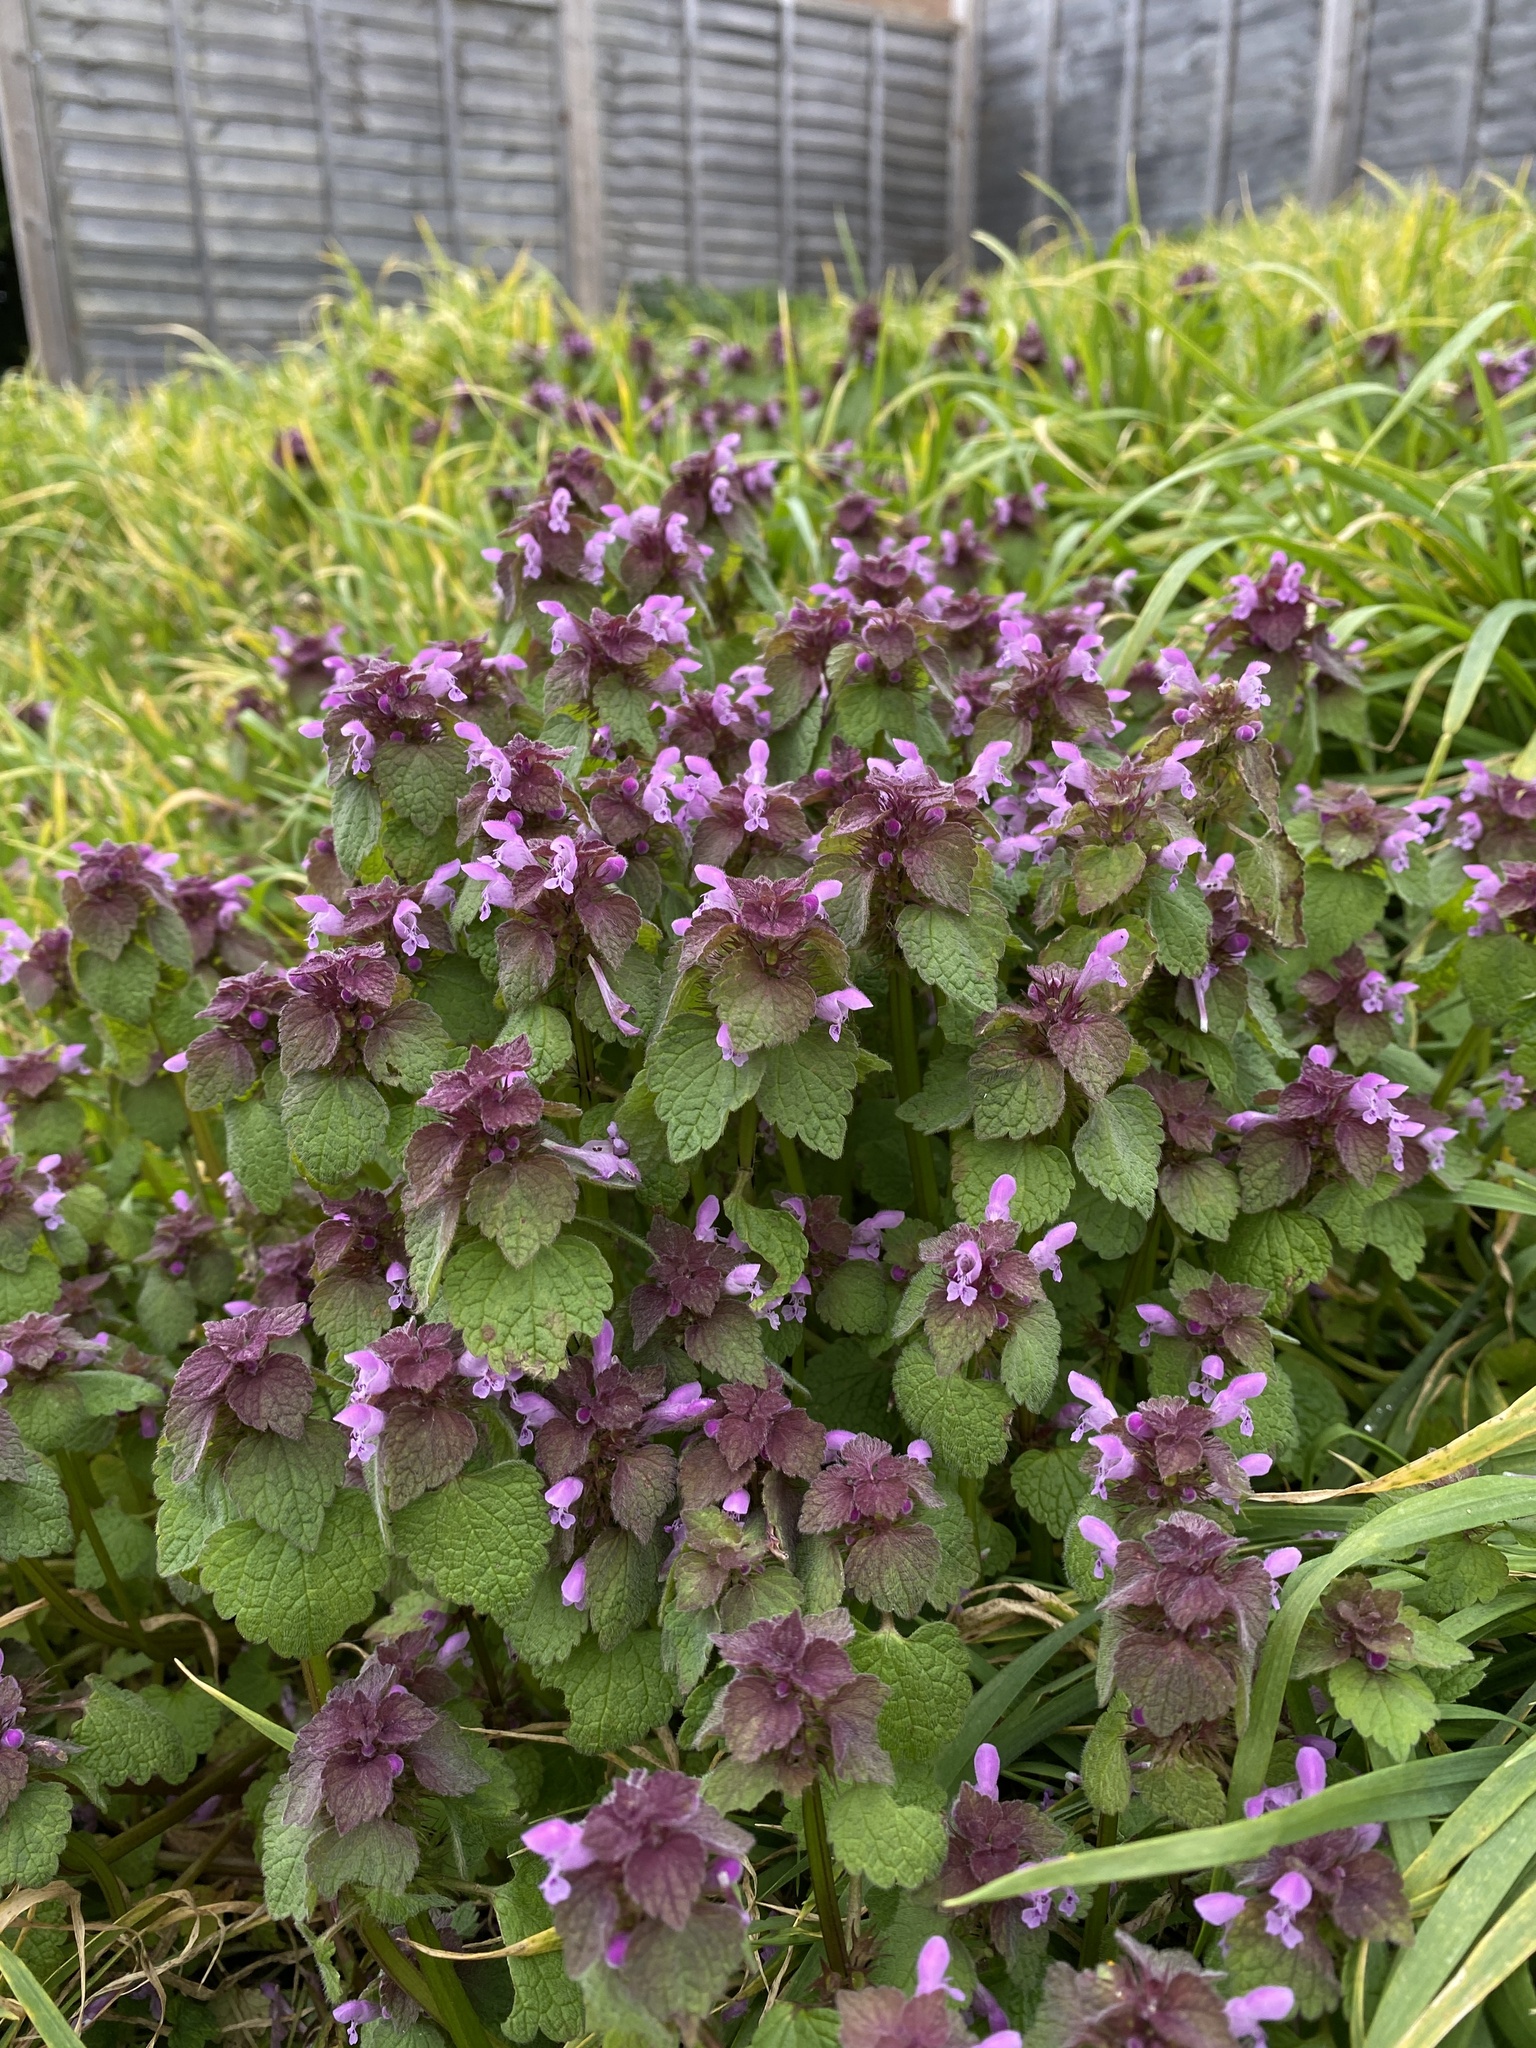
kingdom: Plantae
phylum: Tracheophyta
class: Magnoliopsida
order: Lamiales
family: Lamiaceae
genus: Lamium
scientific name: Lamium purpureum
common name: Red dead-nettle
